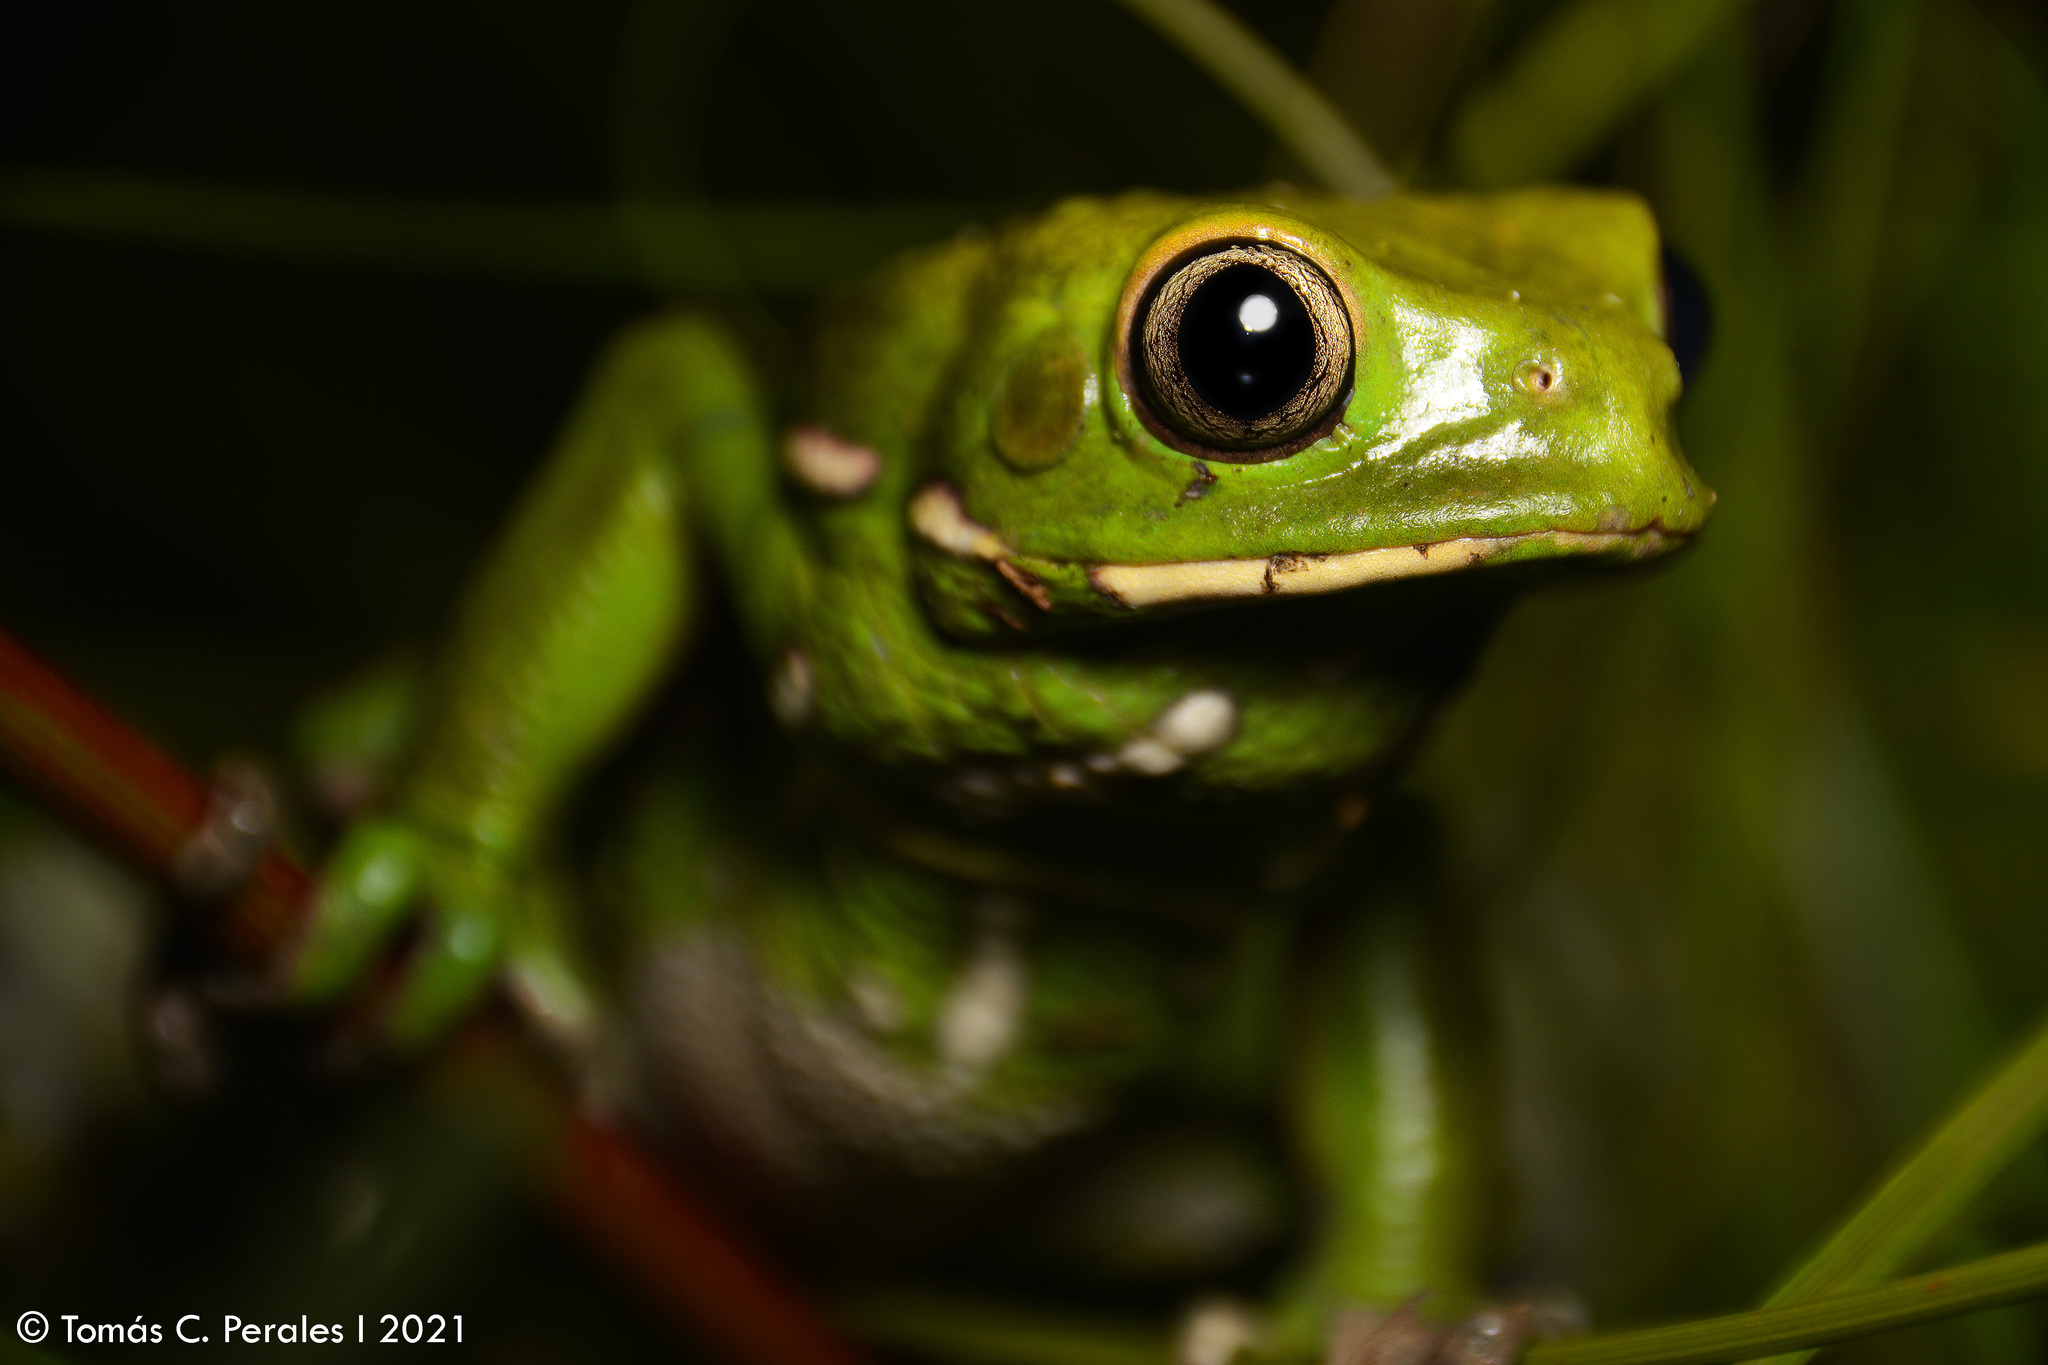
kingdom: Animalia
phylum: Chordata
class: Amphibia
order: Anura
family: Phyllomedusidae
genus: Phyllomedusa
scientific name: Phyllomedusa sauvagii
